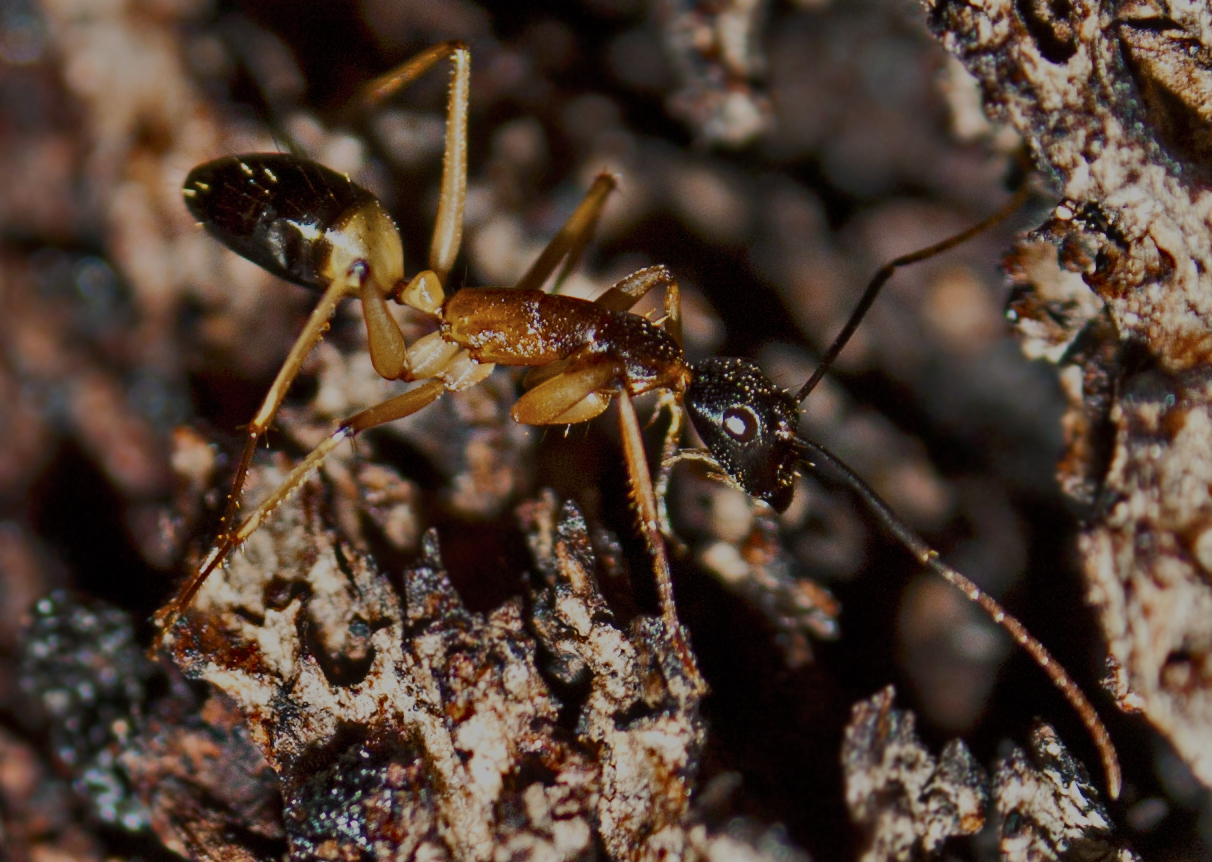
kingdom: Animalia
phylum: Arthropoda
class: Insecta
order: Hymenoptera
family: Formicidae
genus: Camponotus
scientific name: Camponotus consobrinus
